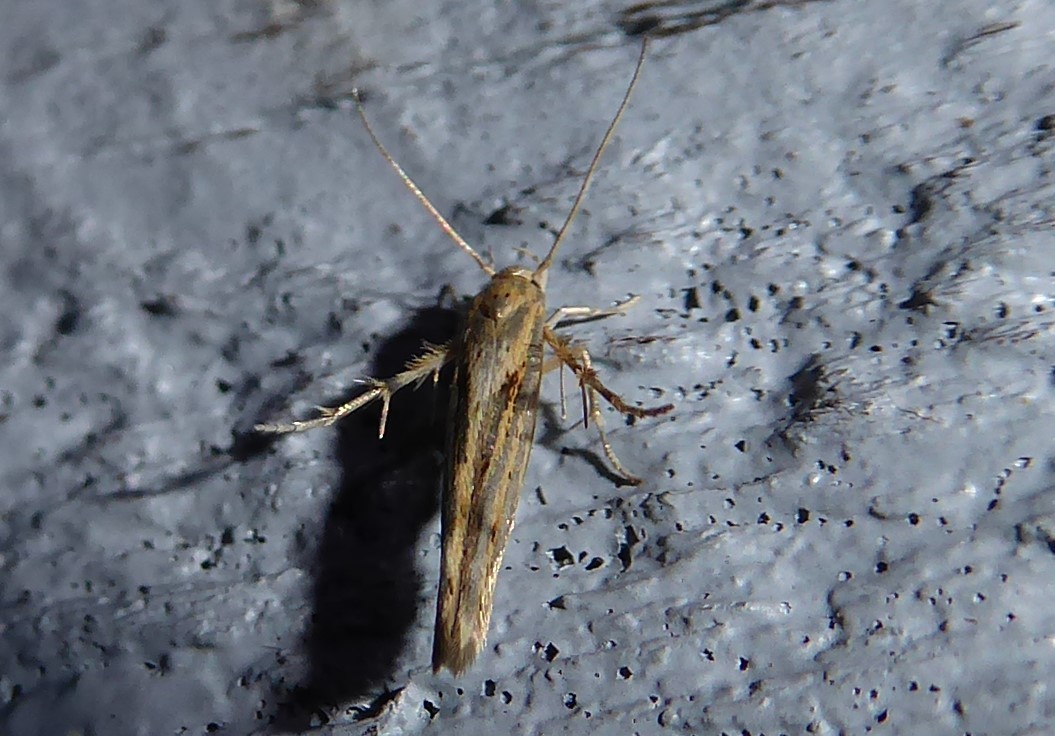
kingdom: Animalia
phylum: Arthropoda
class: Insecta
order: Lepidoptera
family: Stathmopodidae
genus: Stathmopoda
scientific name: Stathmopoda plumbiflua
